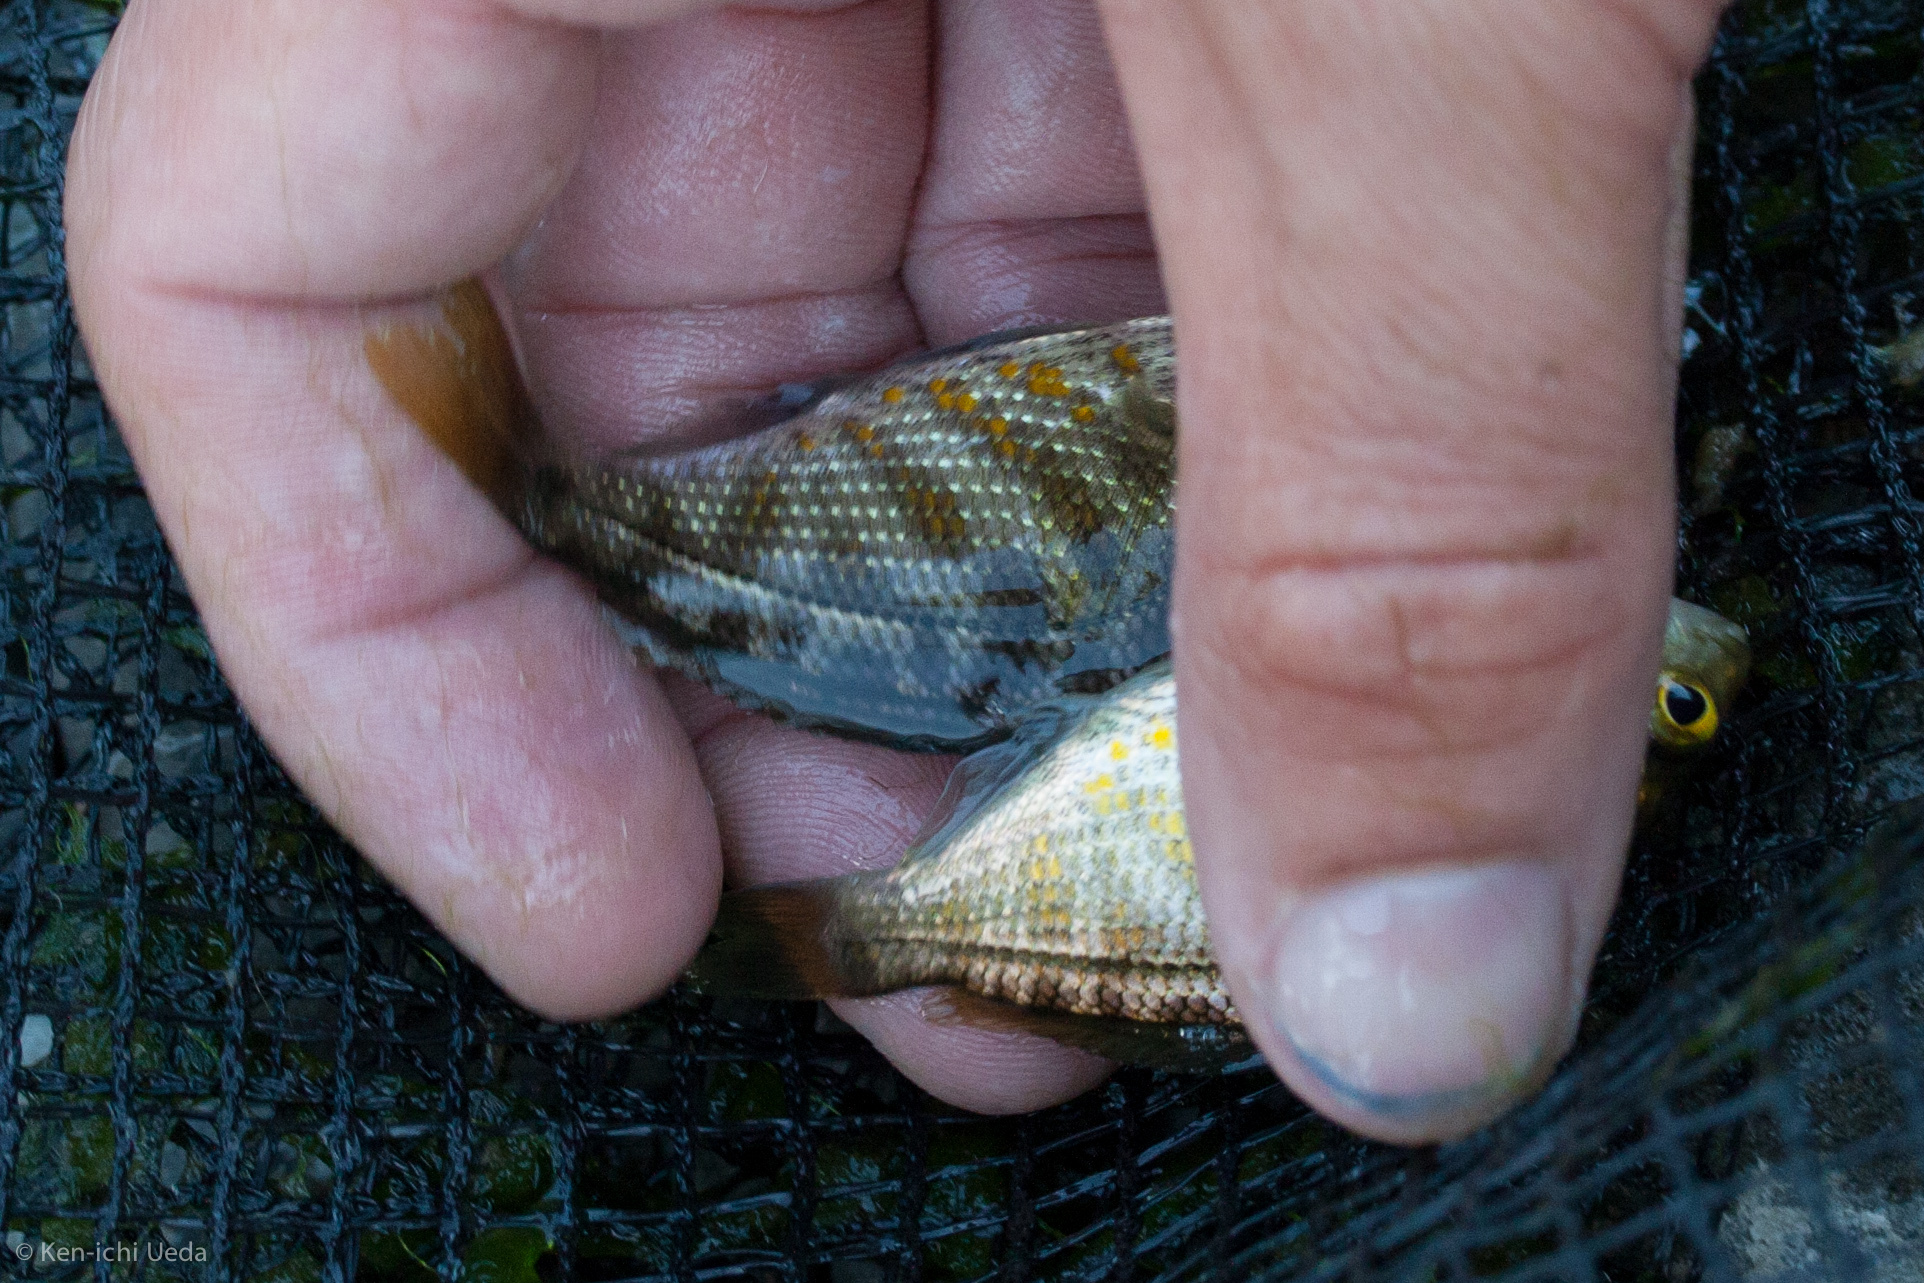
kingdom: Animalia
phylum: Chordata
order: Perciformes
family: Embiotocidae
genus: Hysterocarpus
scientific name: Hysterocarpus traskii
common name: Russian river tule perch
